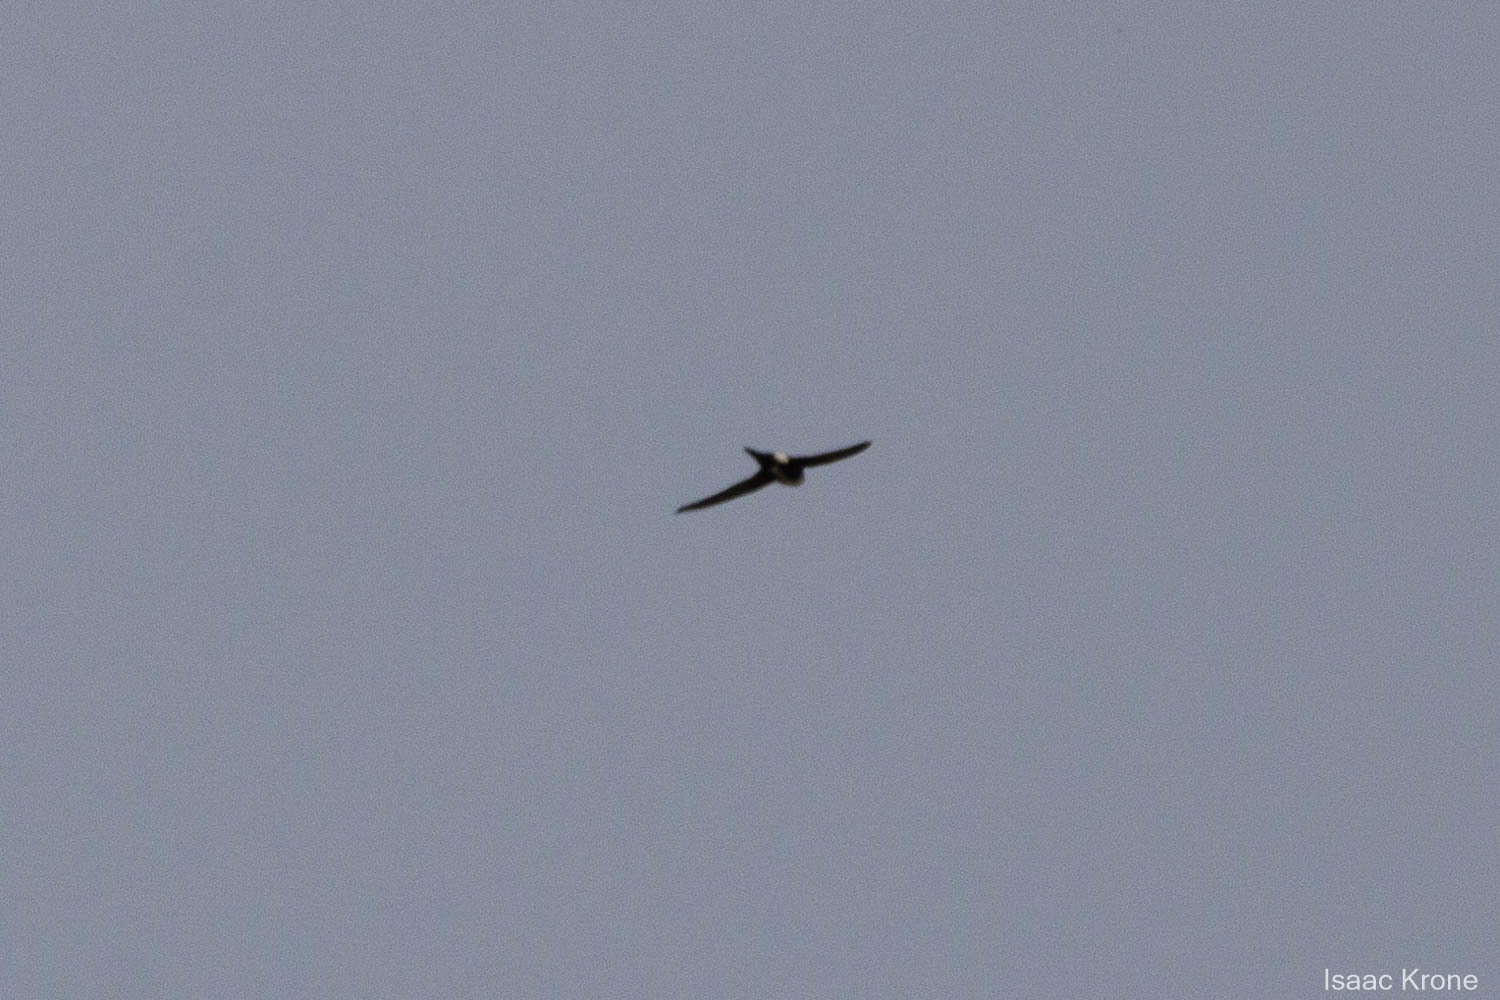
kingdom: Animalia
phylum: Chordata
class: Aves
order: Apodiformes
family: Apodidae
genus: Aeronautes
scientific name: Aeronautes saxatalis
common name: White-throated swift
